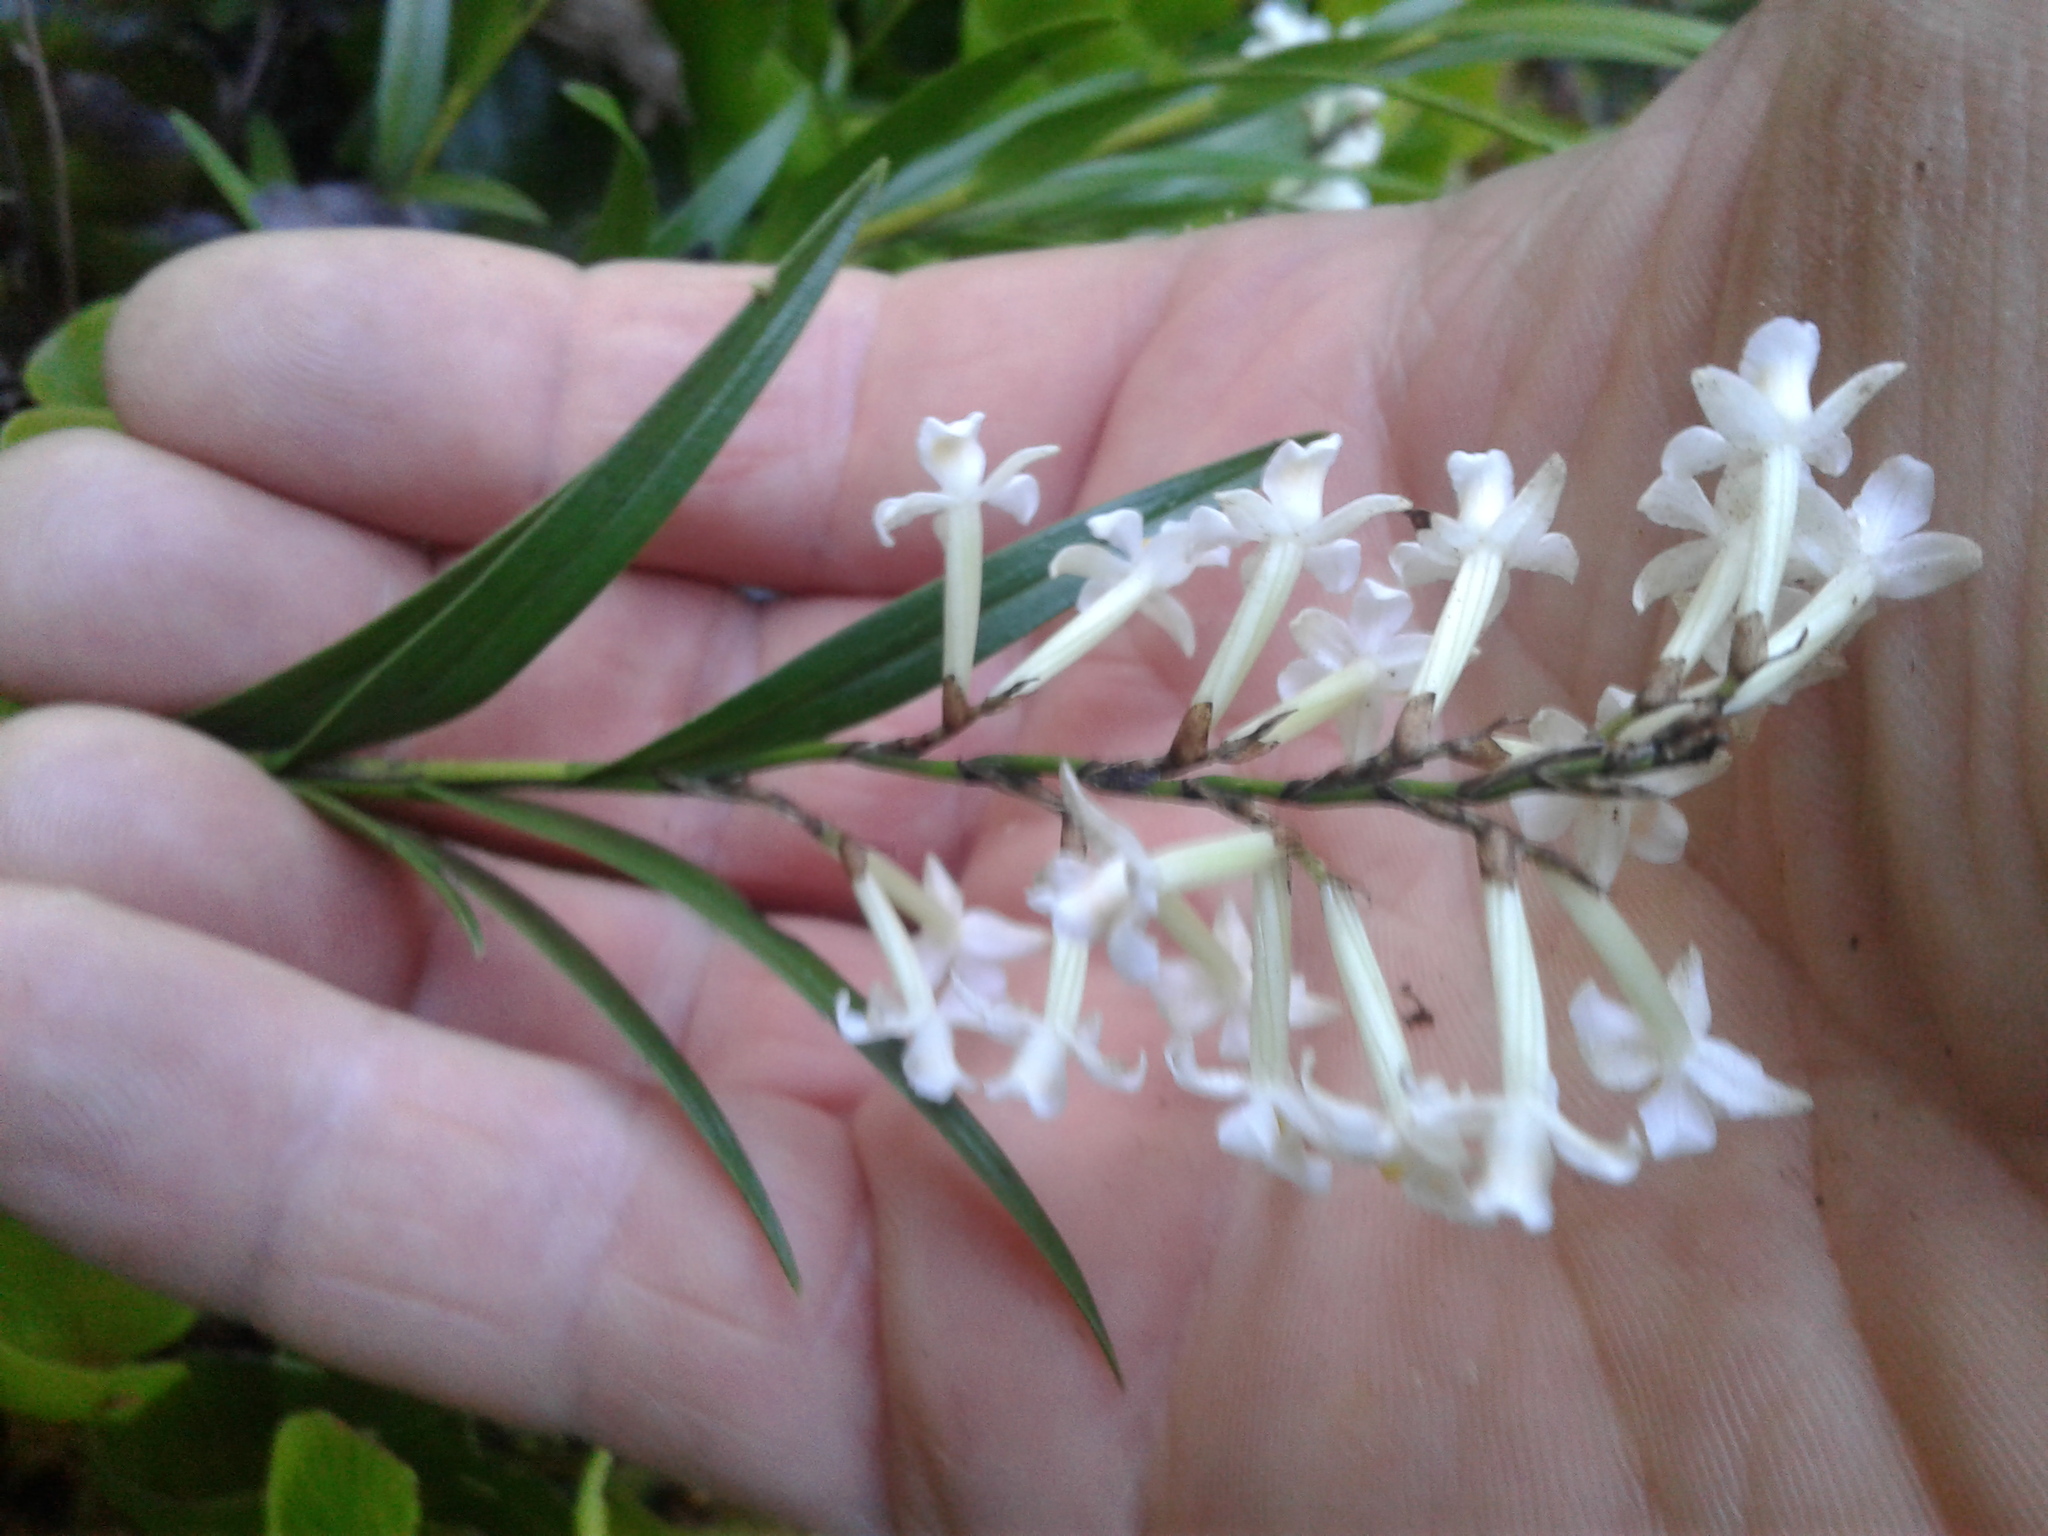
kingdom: Plantae
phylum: Tracheophyta
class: Liliopsida
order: Asparagales
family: Orchidaceae
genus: Earina
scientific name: Earina autumnalis
